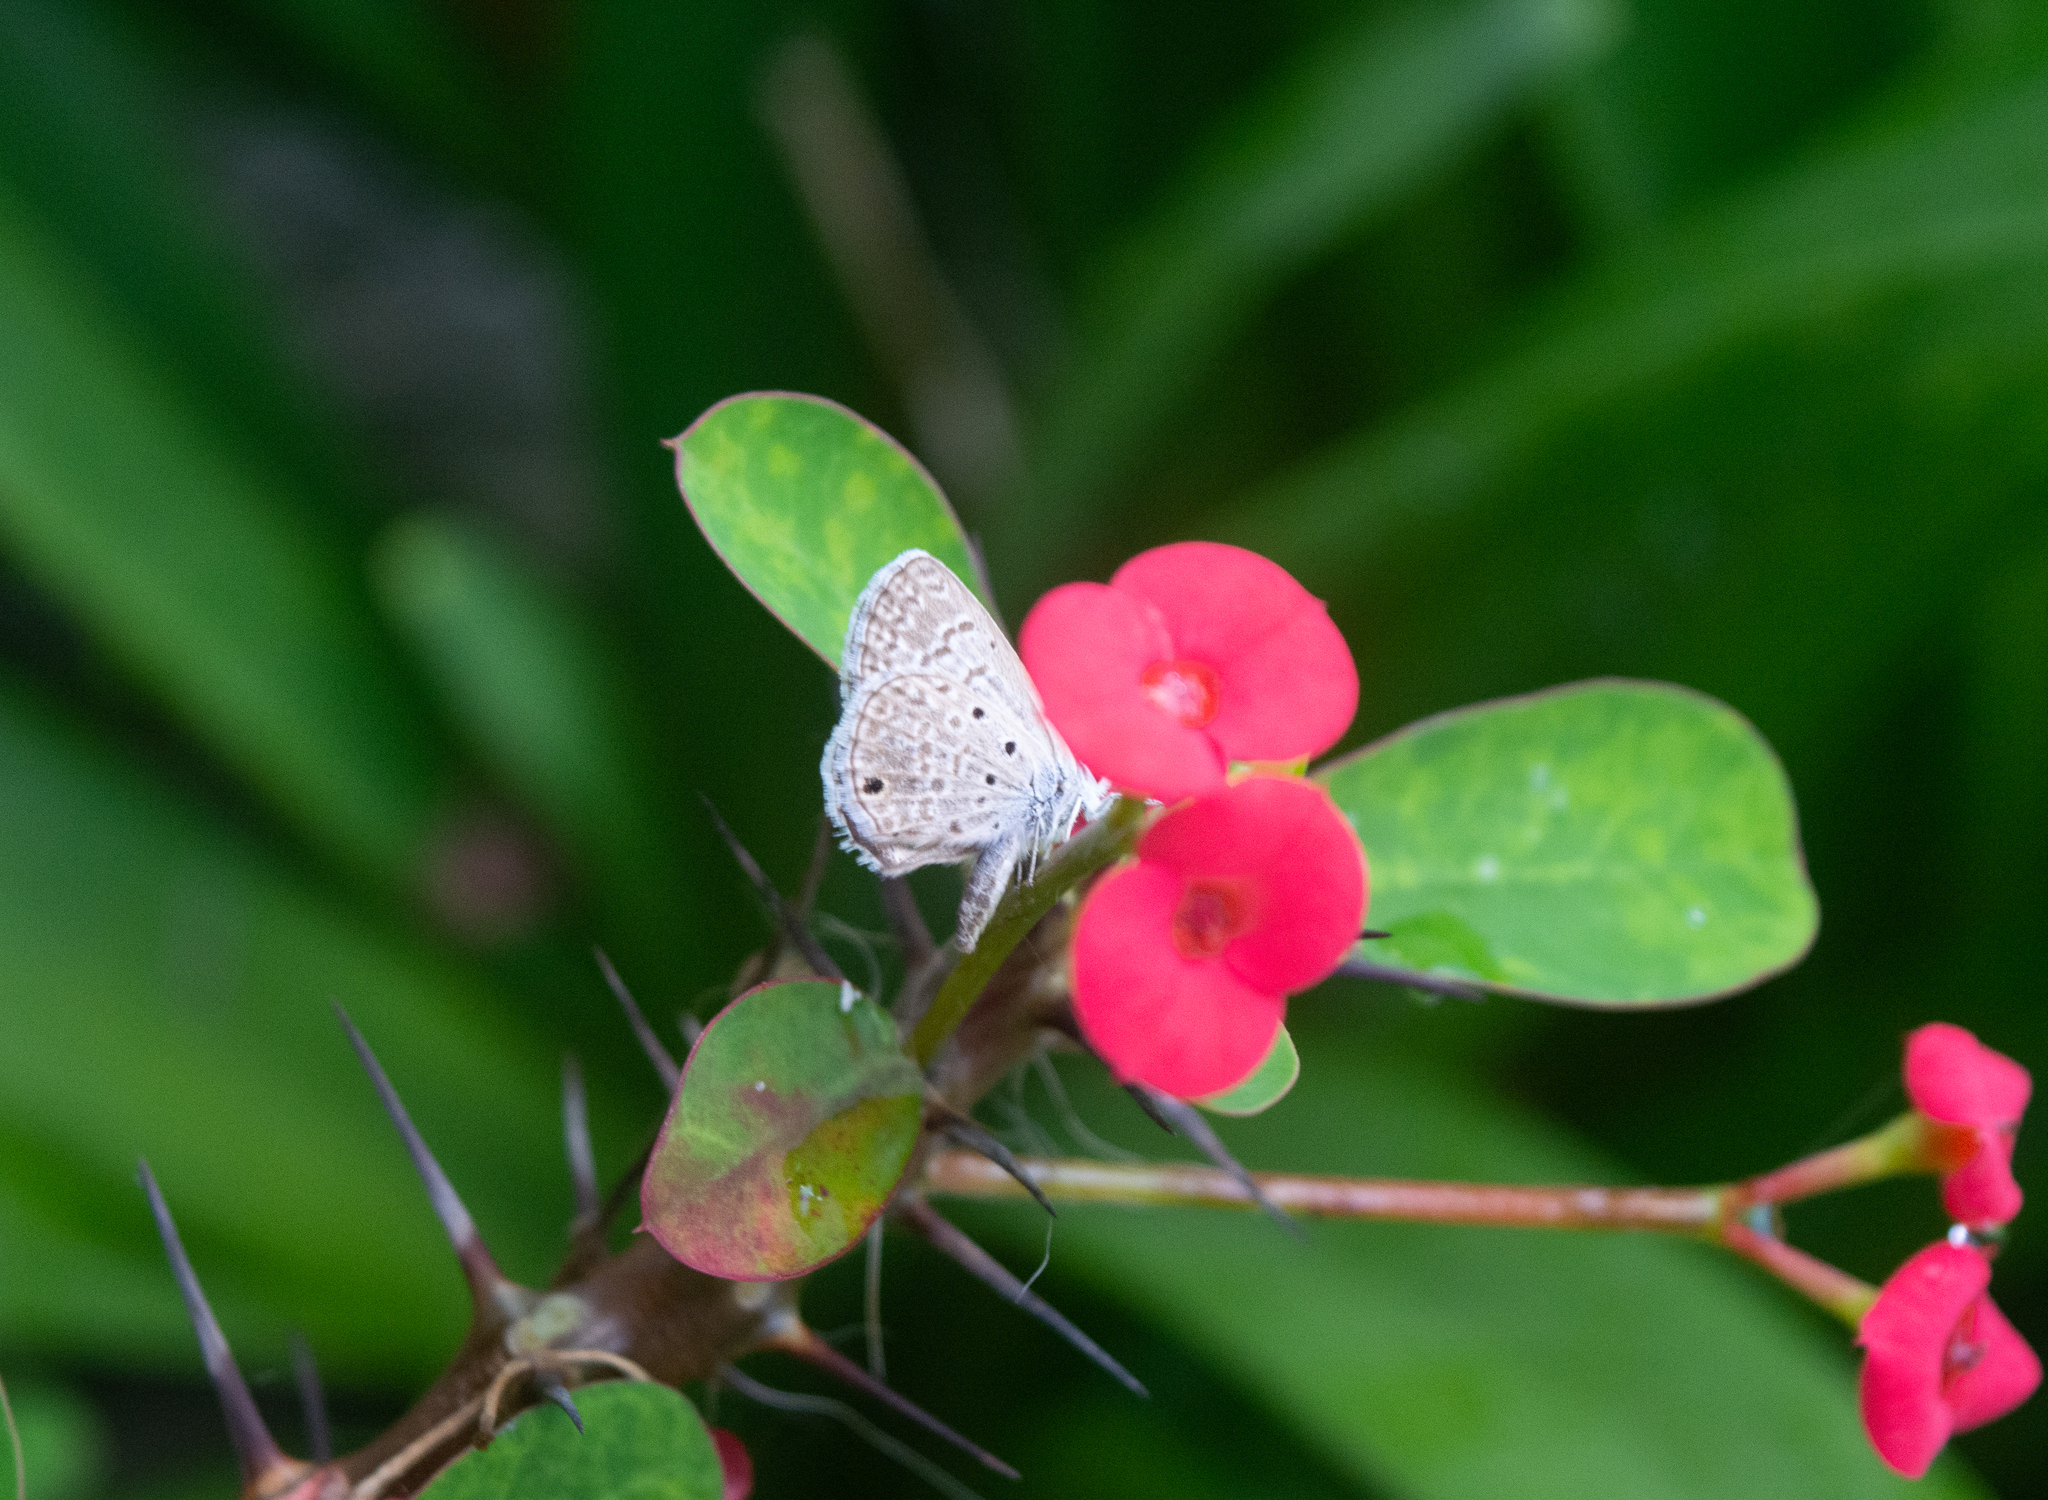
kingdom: Animalia
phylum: Arthropoda
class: Insecta
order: Lepidoptera
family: Lycaenidae
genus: Hemiargus
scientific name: Hemiargus hanno
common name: Common blue
